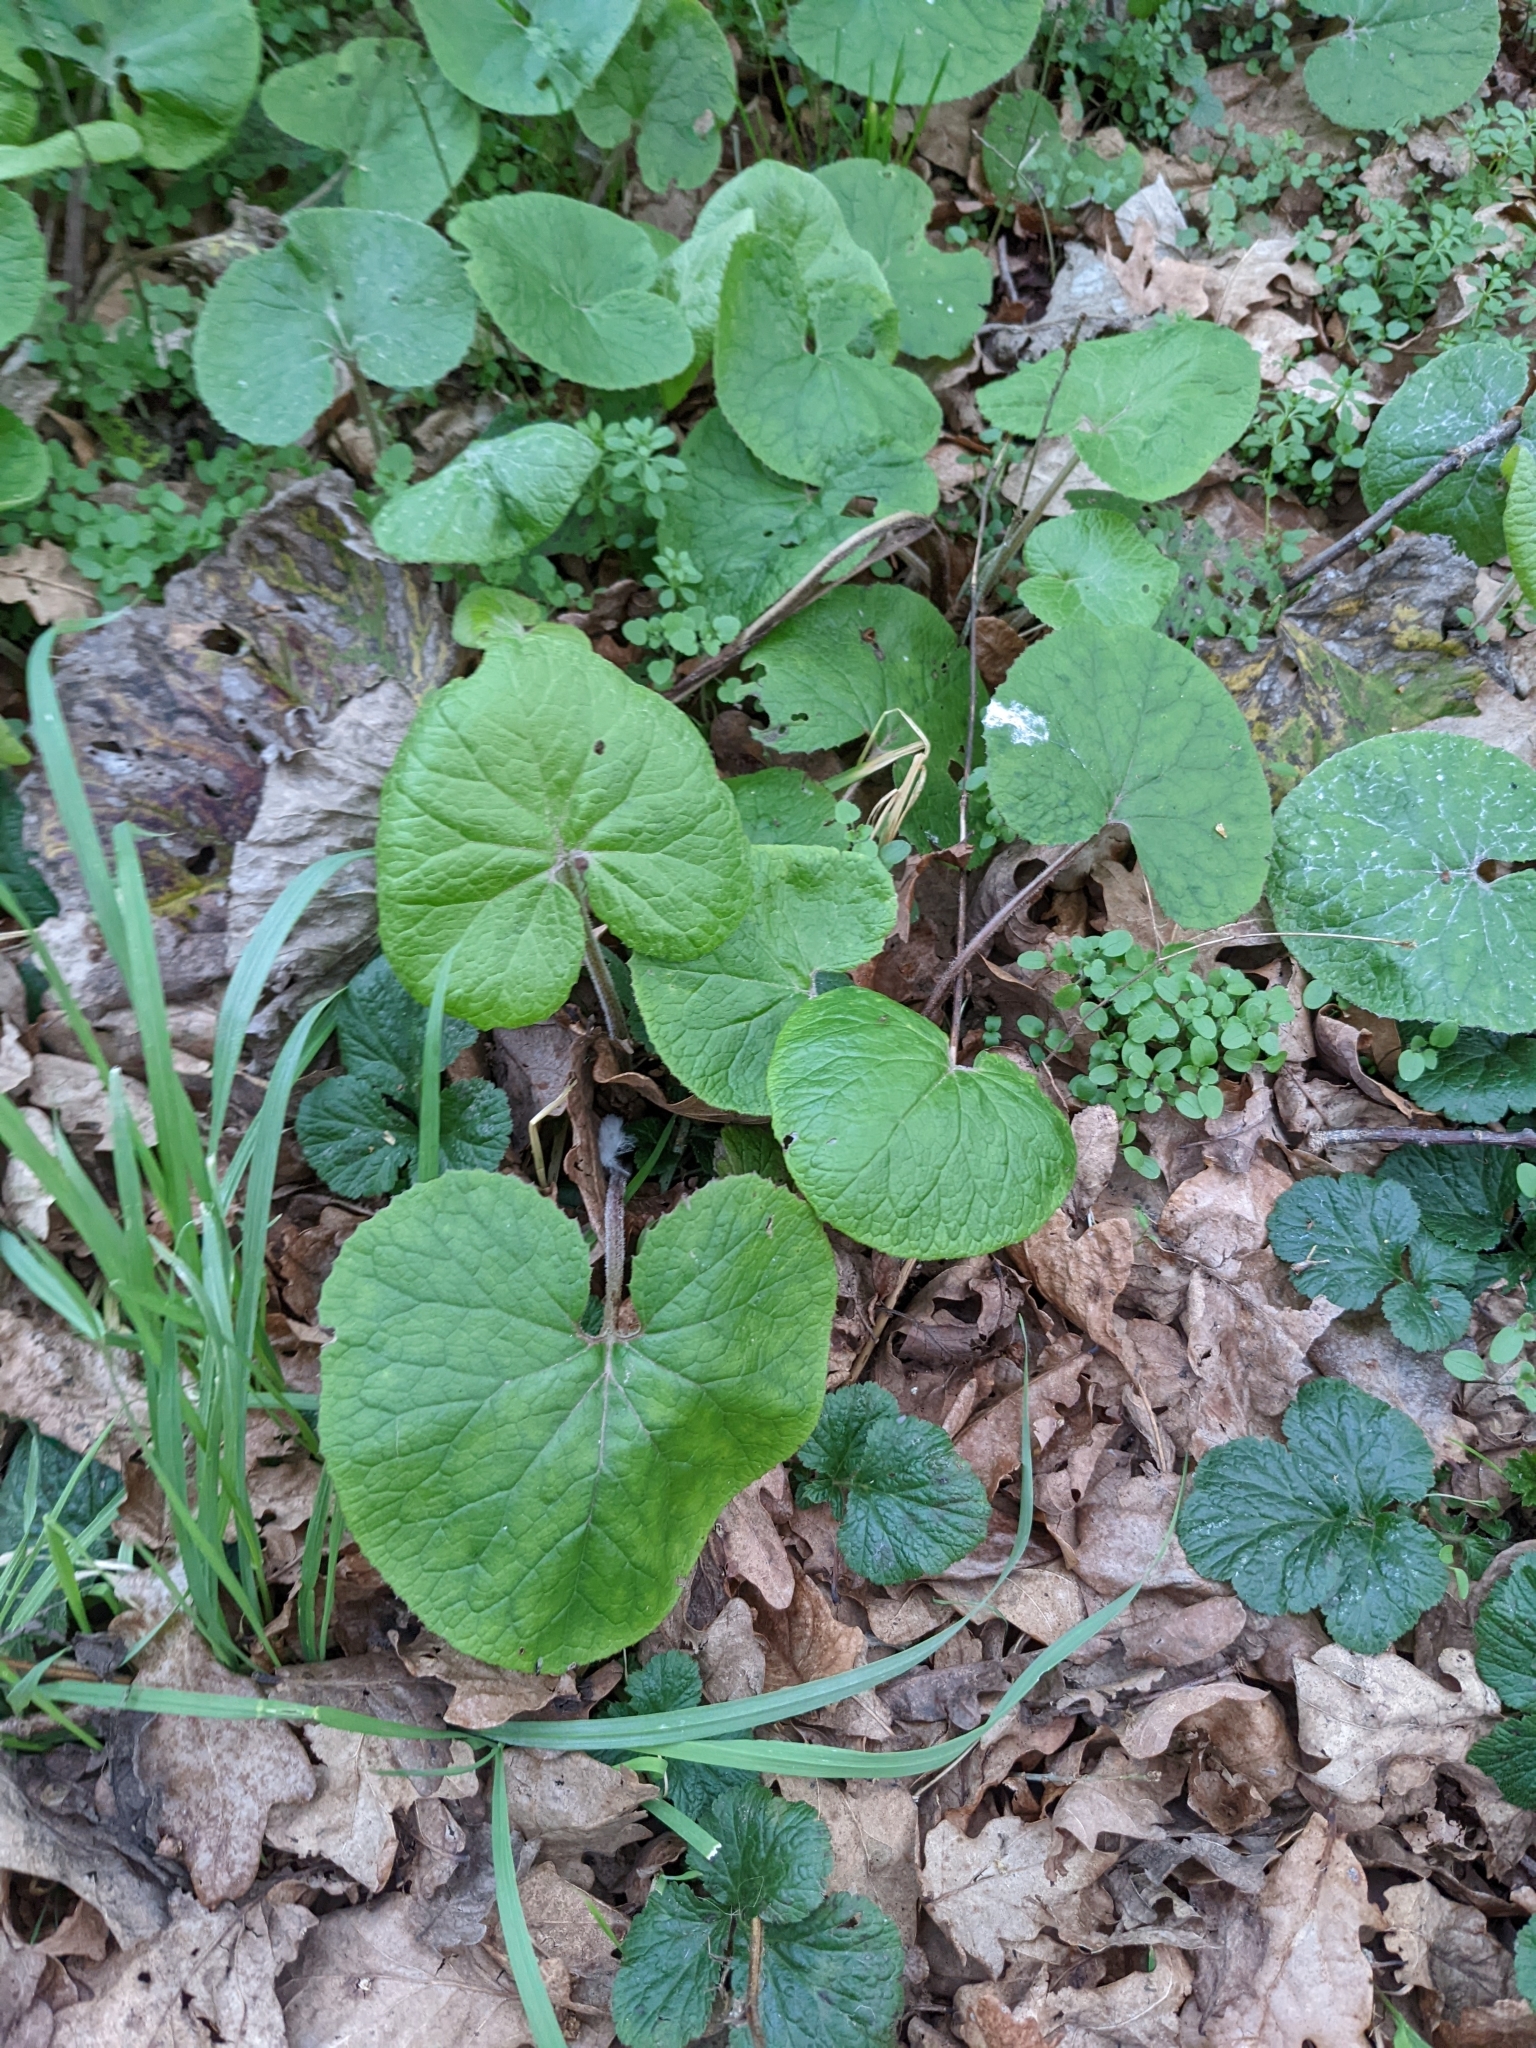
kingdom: Plantae
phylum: Tracheophyta
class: Magnoliopsida
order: Asterales
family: Asteraceae
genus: Petasites
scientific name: Petasites pyrenaicus
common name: Winter heliotrope
